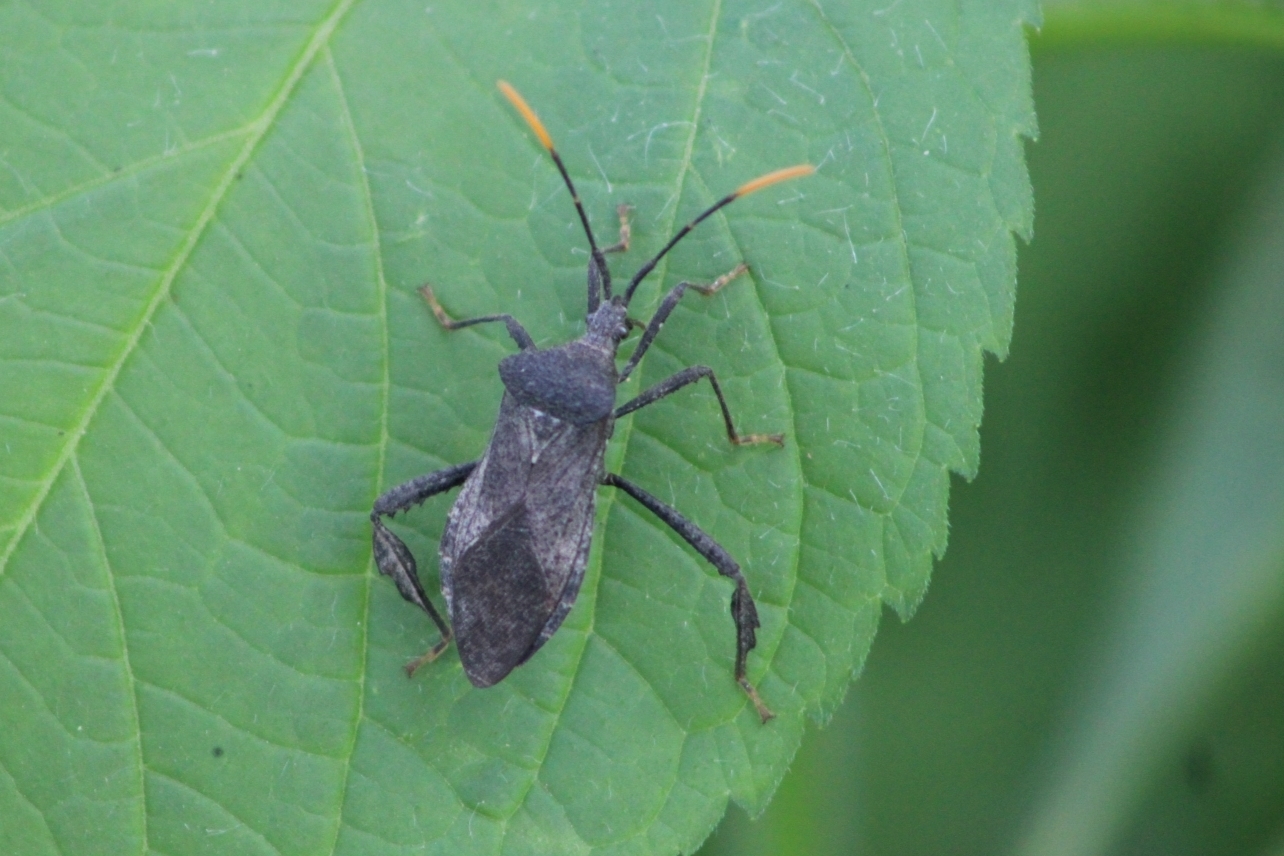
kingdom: Animalia
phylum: Arthropoda
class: Insecta
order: Hemiptera
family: Coreidae
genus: Acanthocephala
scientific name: Acanthocephala terminalis
